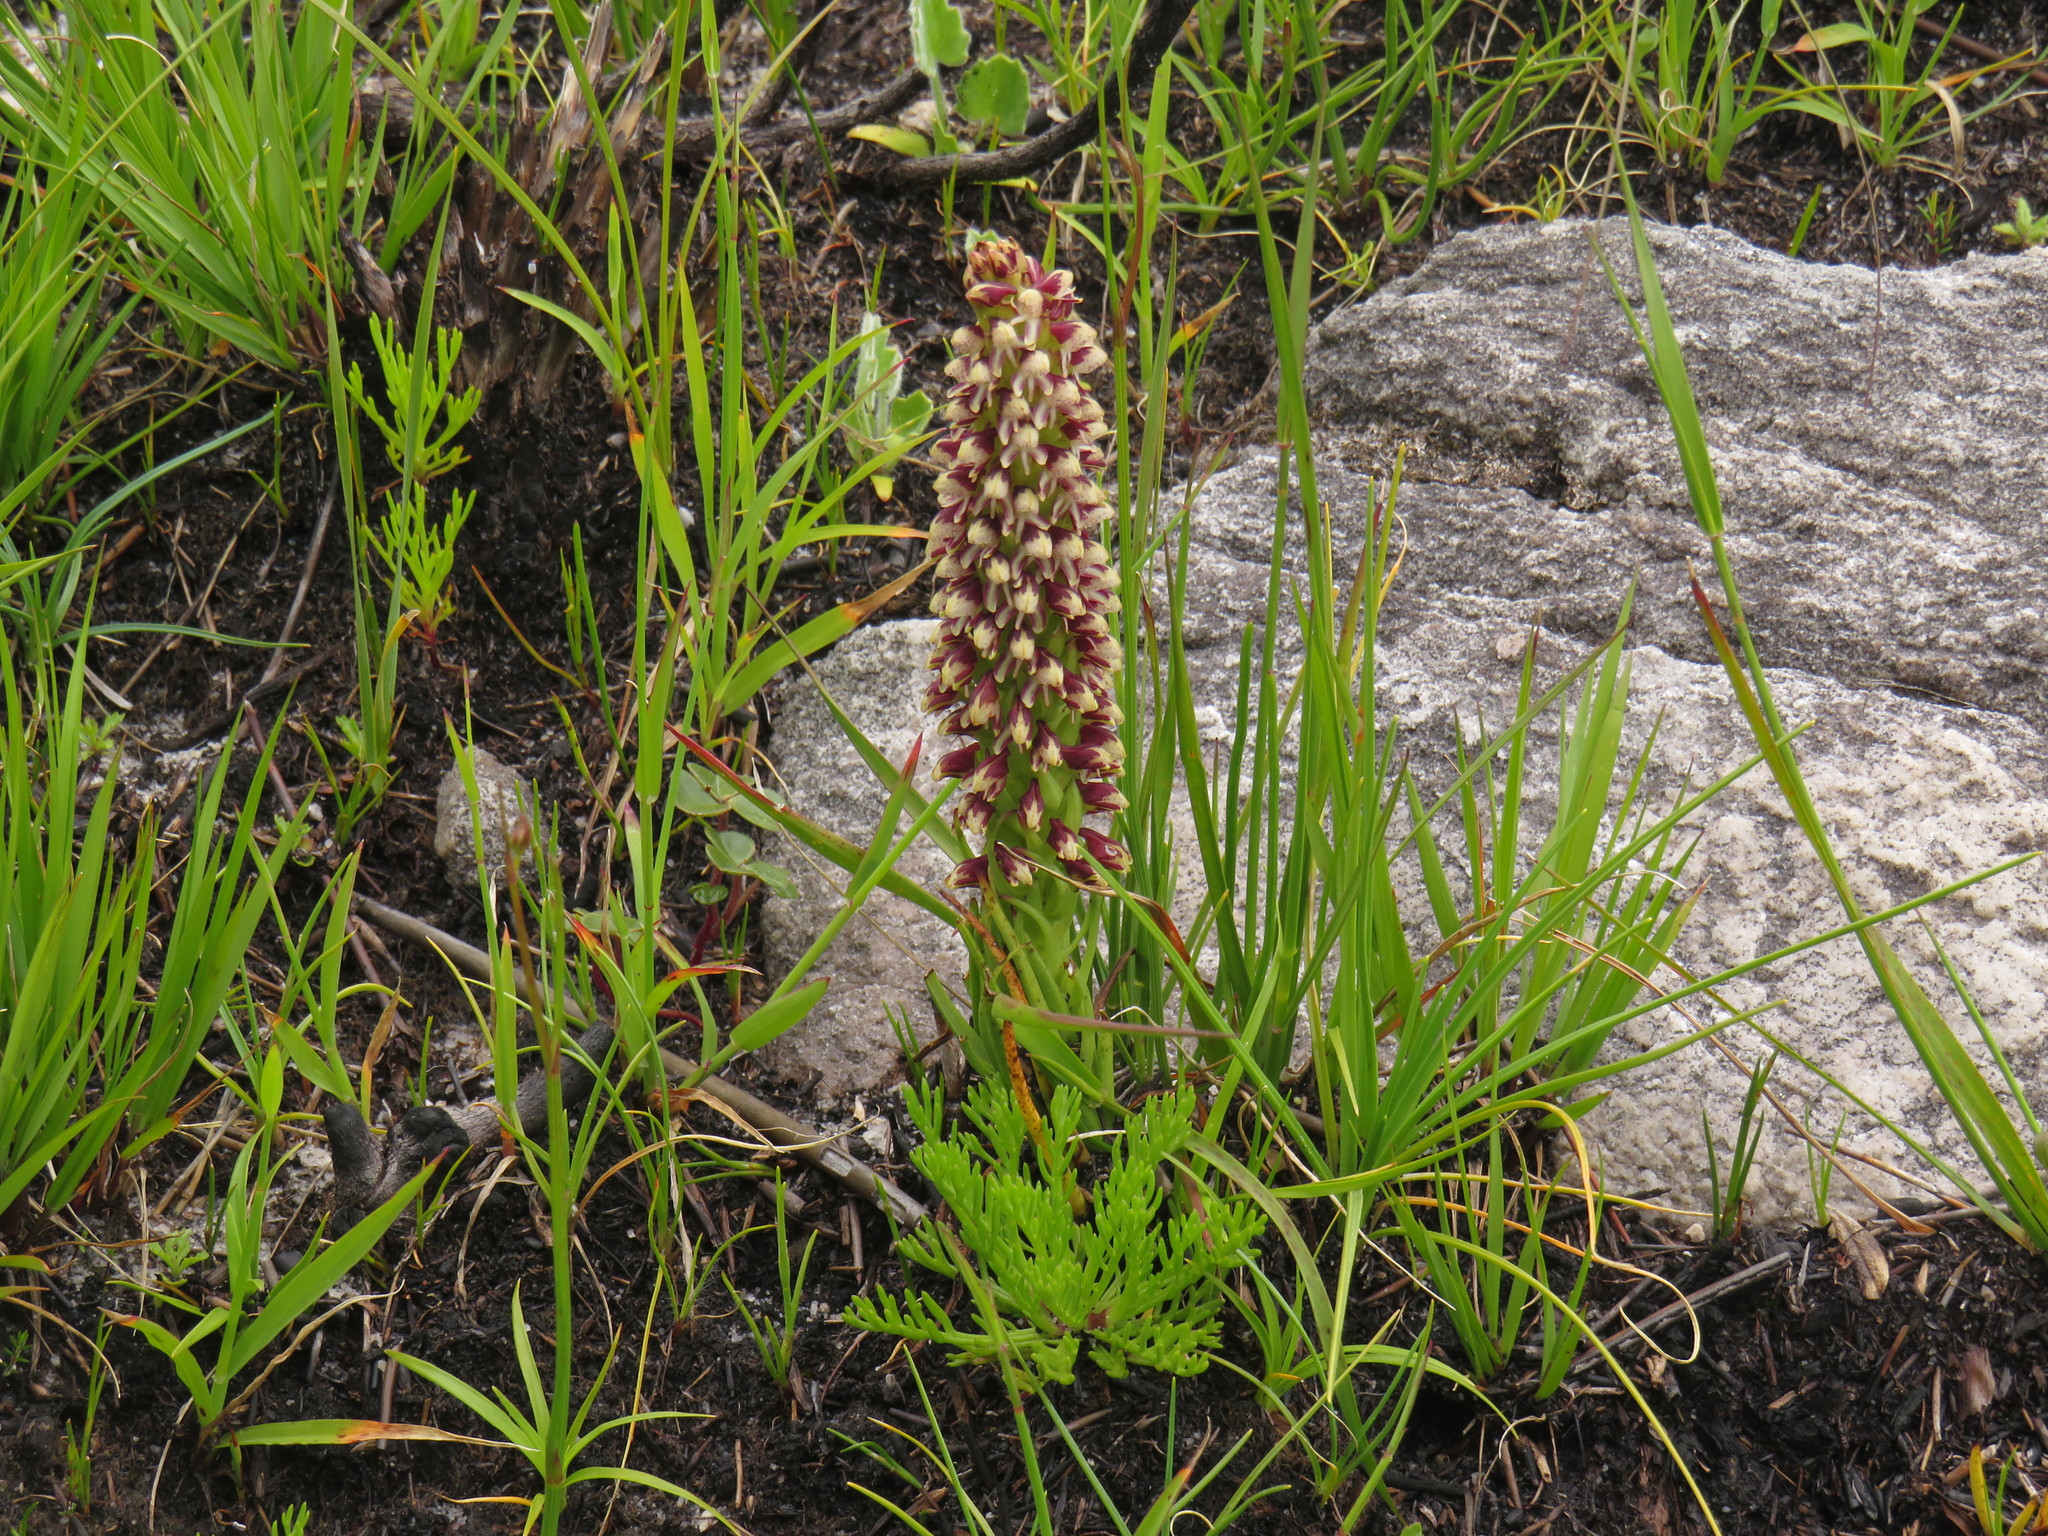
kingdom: Plantae
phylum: Tracheophyta
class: Liliopsida
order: Asparagales
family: Orchidaceae
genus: Disa
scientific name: Disa obtusa
